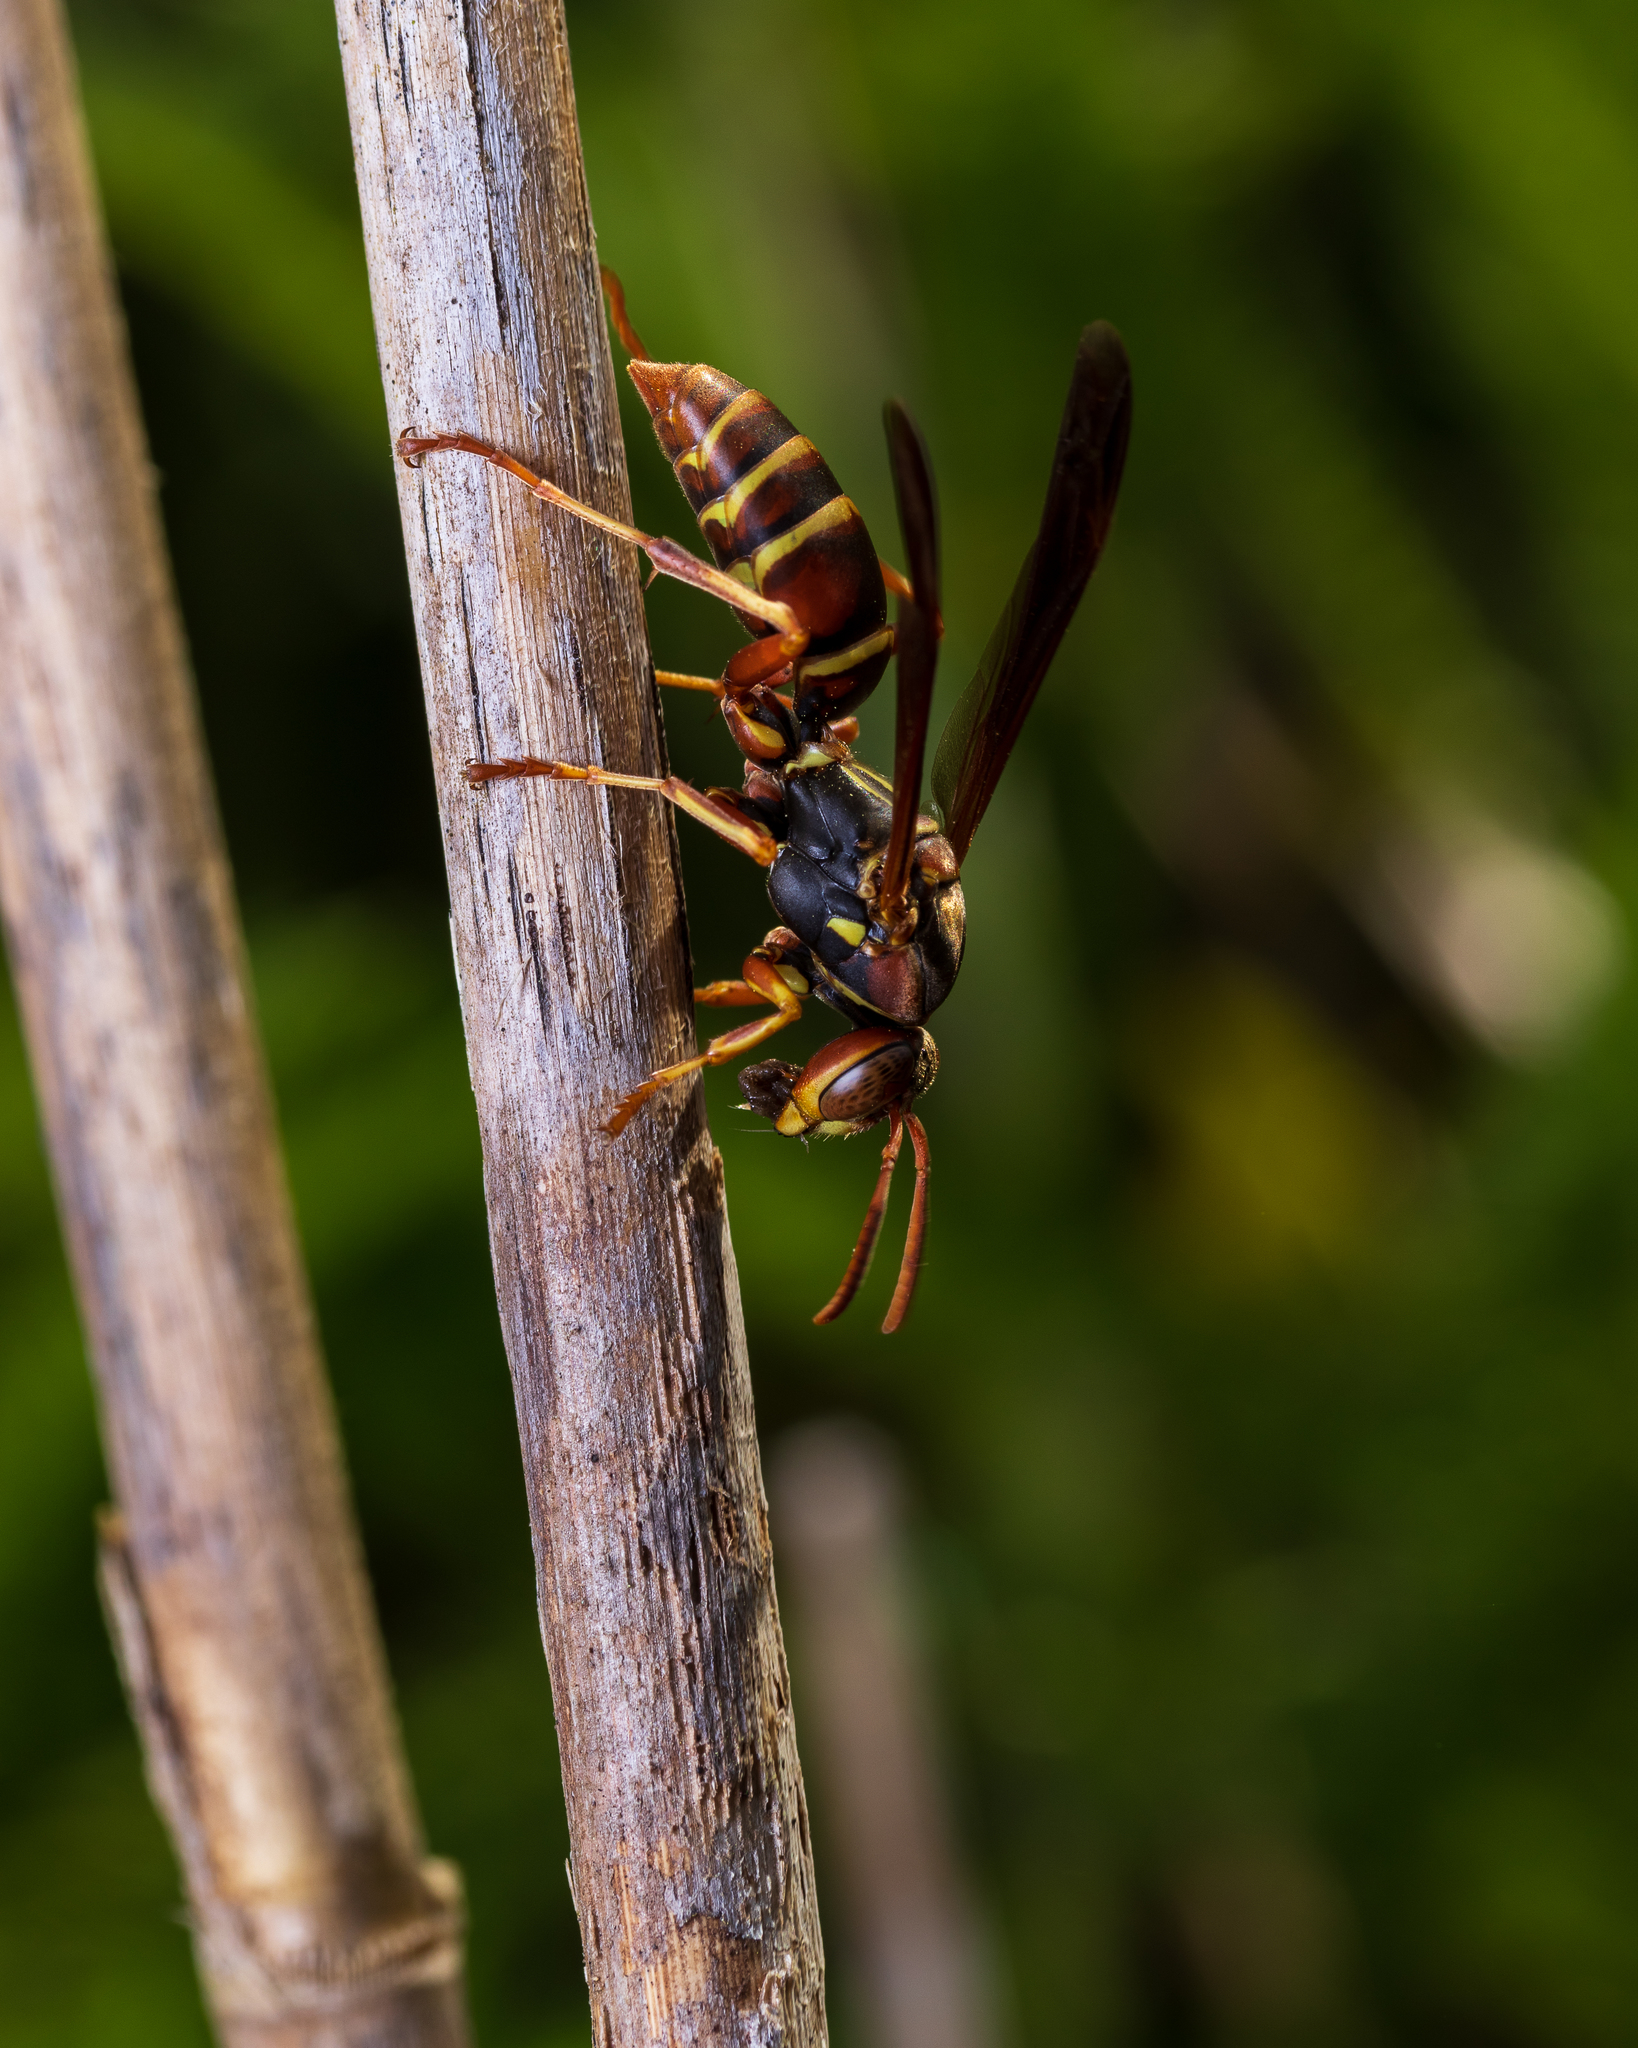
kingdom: Animalia
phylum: Arthropoda
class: Insecta
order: Hymenoptera
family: Eumenidae
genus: Polistes
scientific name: Polistes fuscatus
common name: Dark paper wasp
